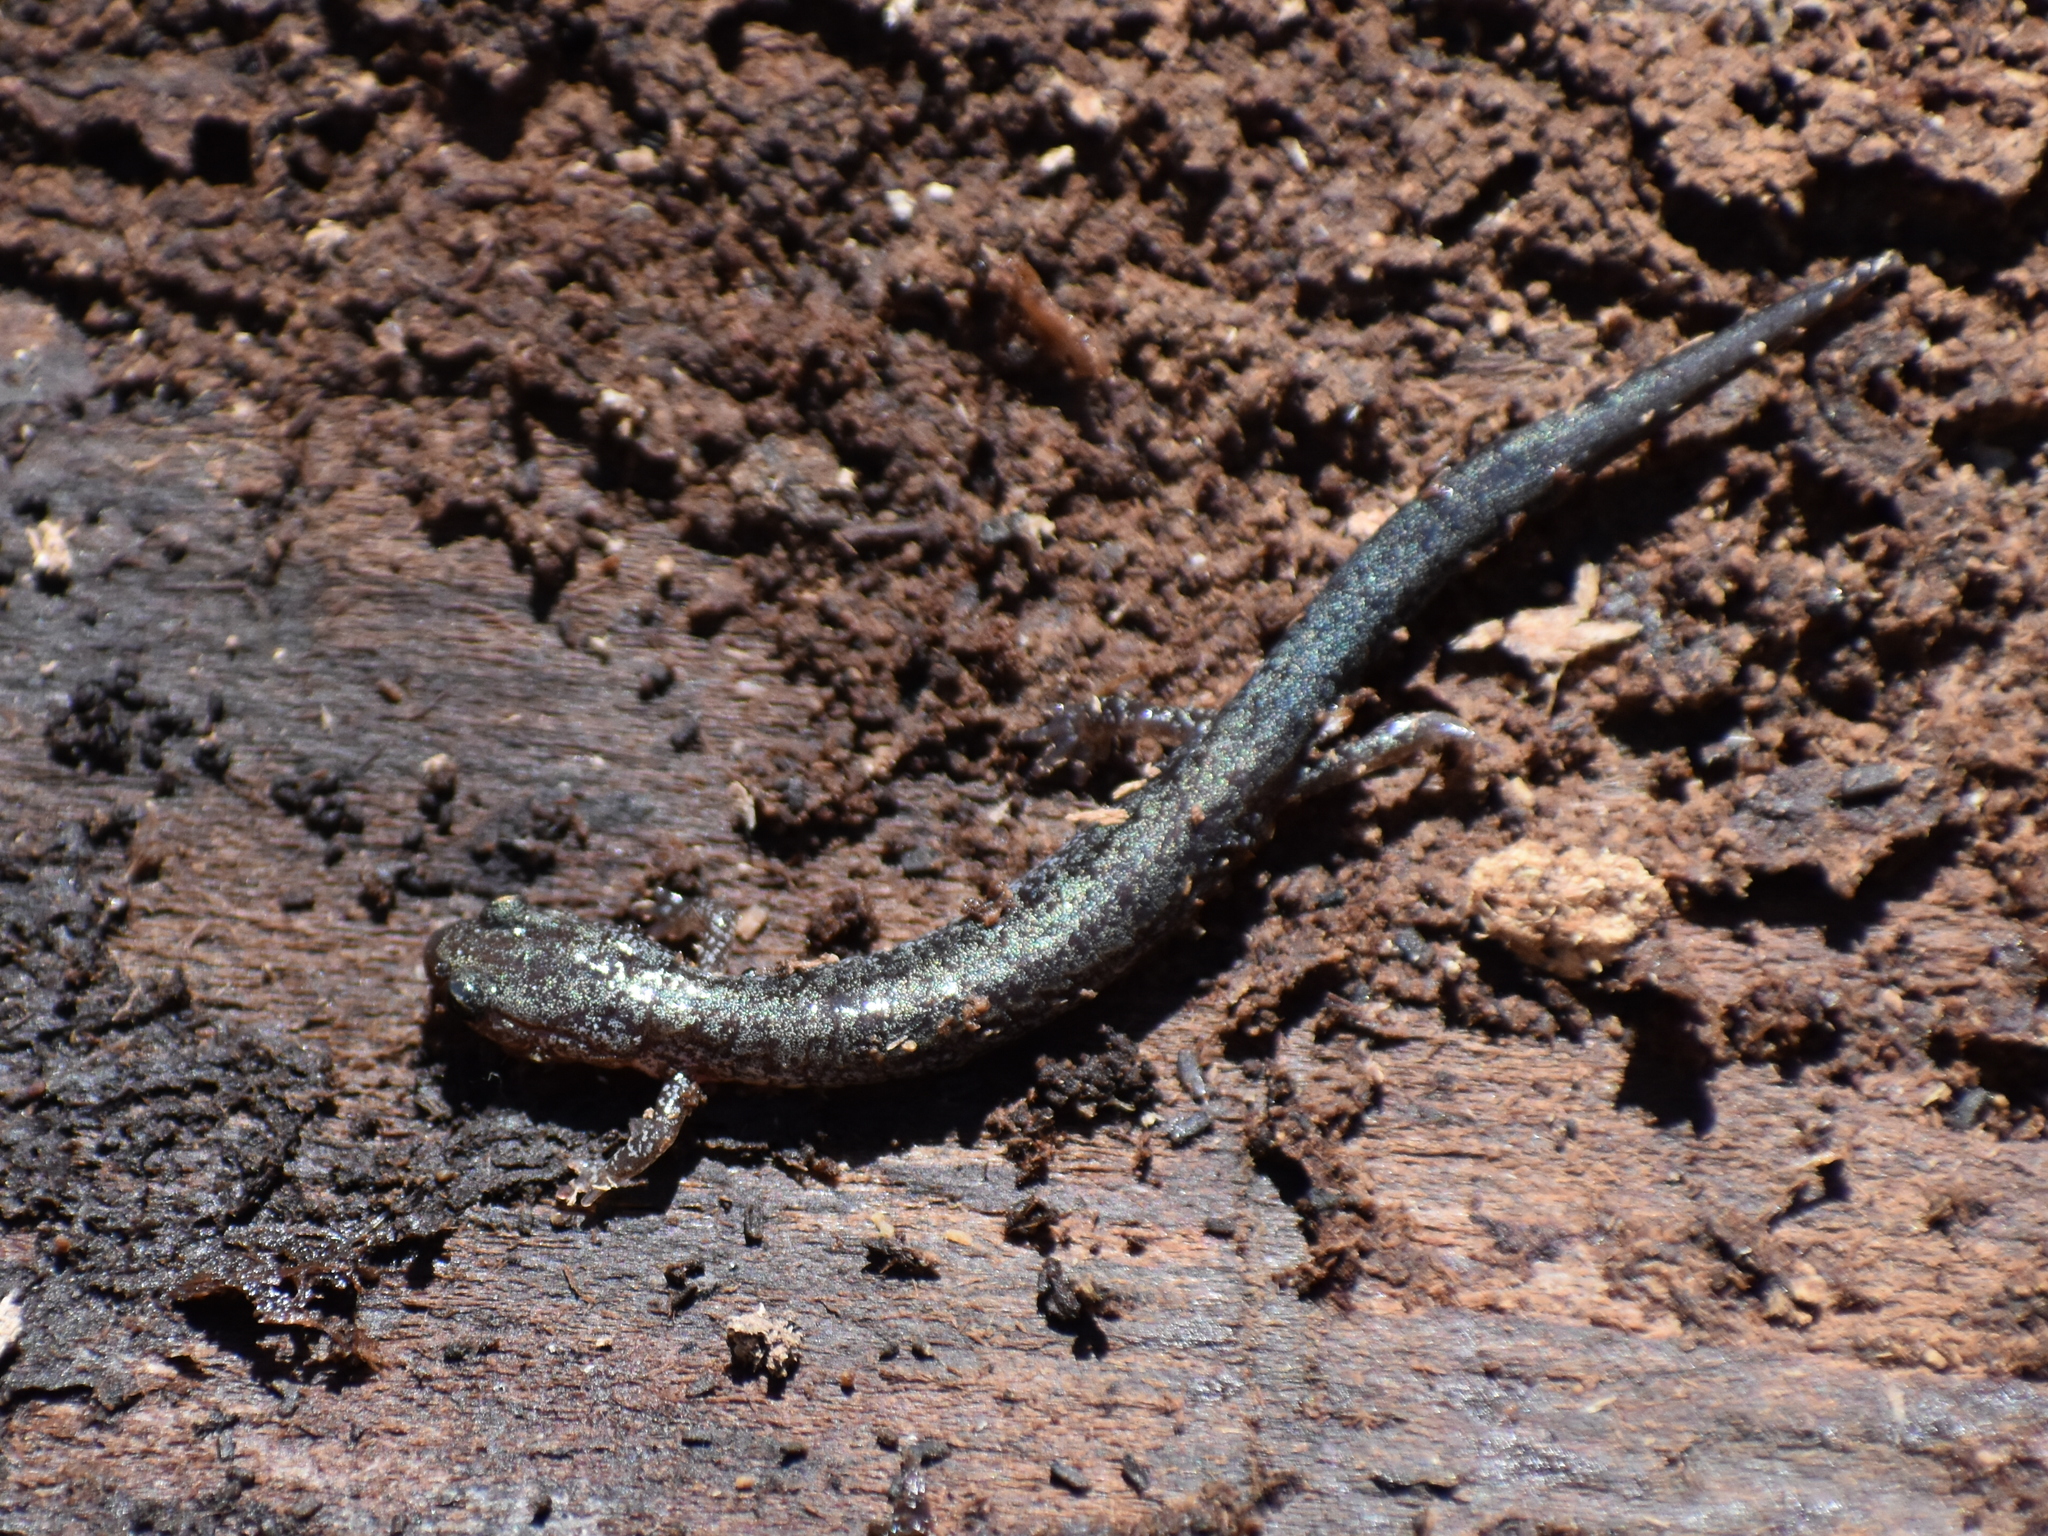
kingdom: Animalia
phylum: Chordata
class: Amphibia
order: Caudata
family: Plethodontidae
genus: Plethodon
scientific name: Plethodon cinereus
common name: Redback salamander
